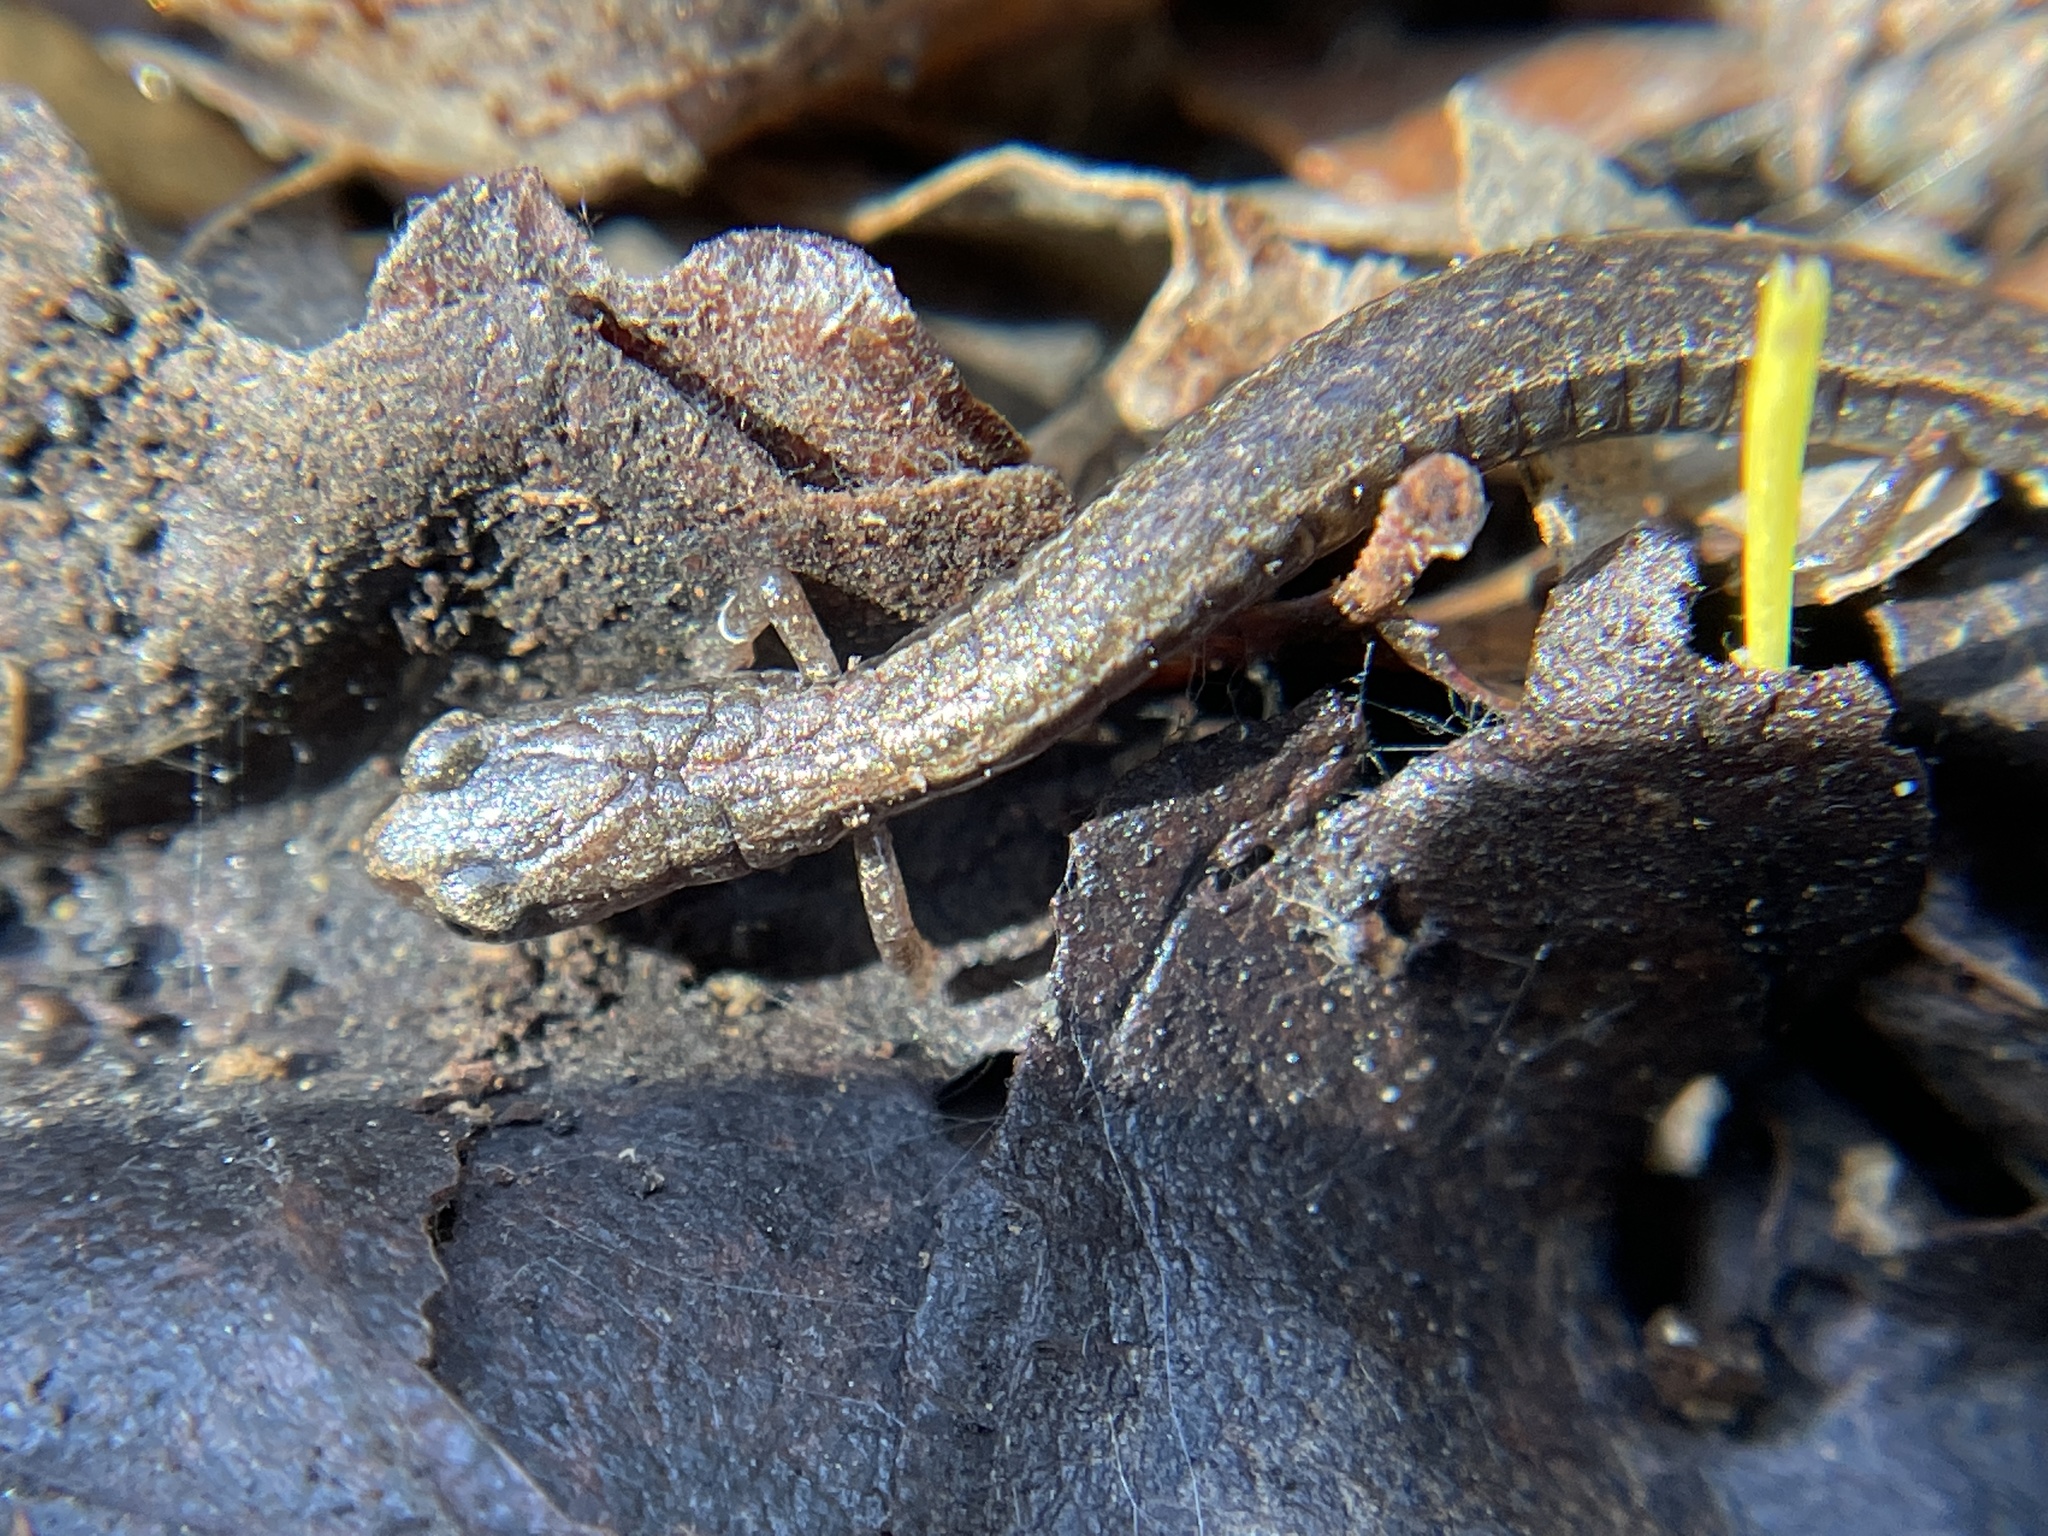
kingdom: Animalia
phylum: Chordata
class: Amphibia
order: Caudata
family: Plethodontidae
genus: Batrachoseps
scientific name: Batrachoseps attenuatus
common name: California slender salamander
